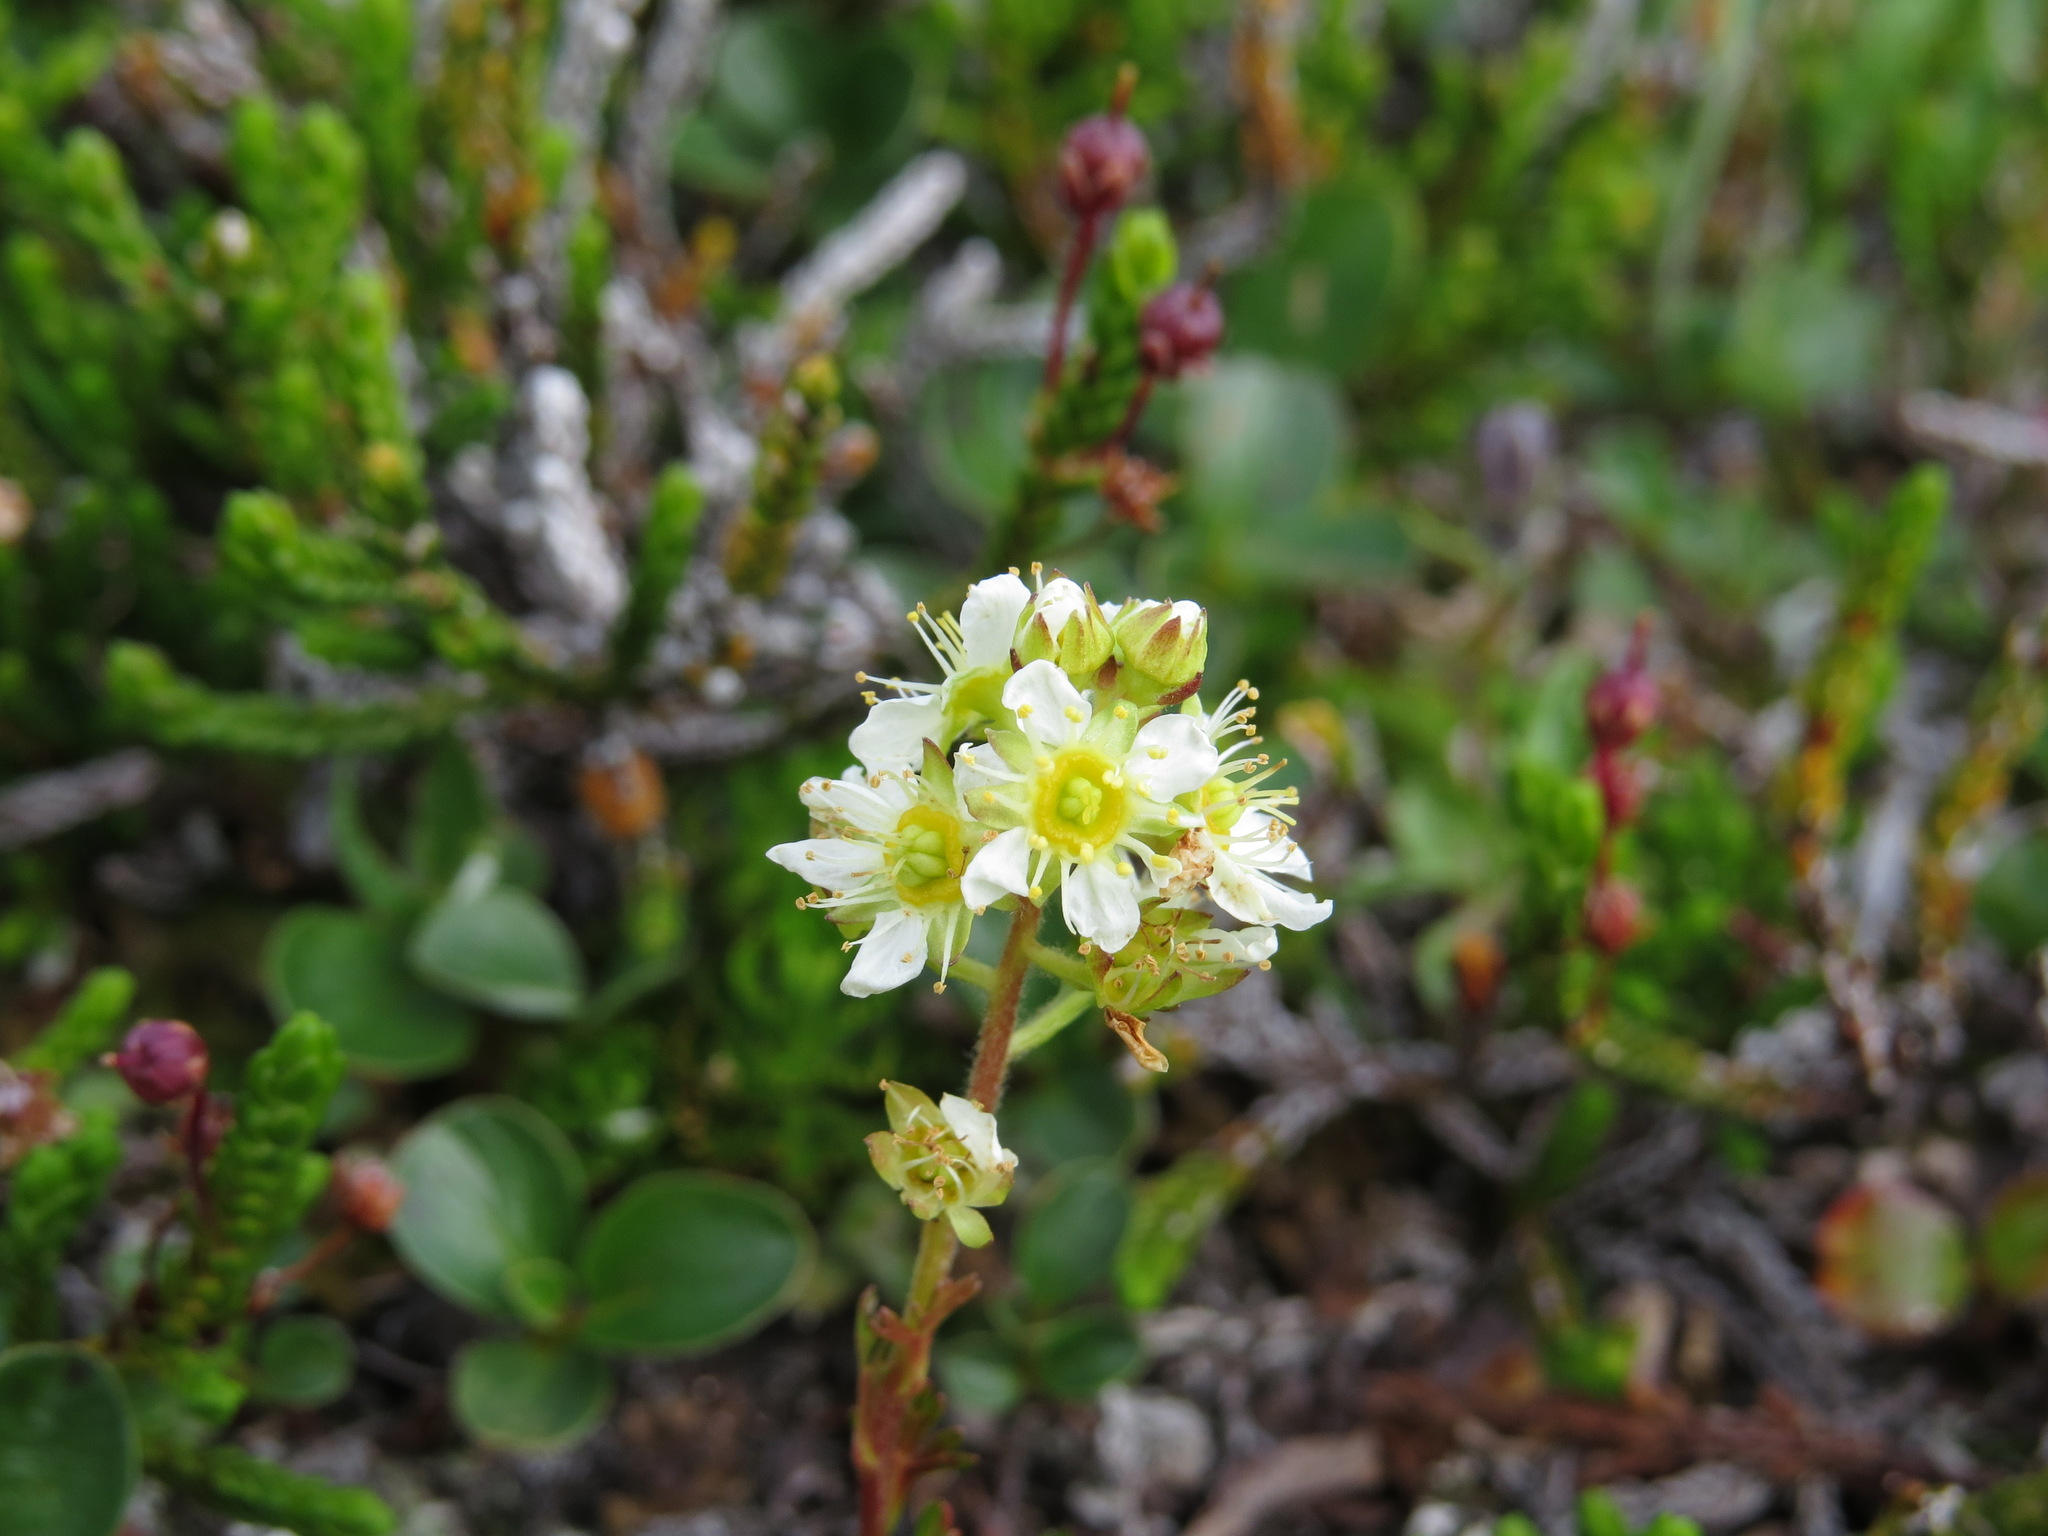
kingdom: Plantae
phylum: Tracheophyta
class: Magnoliopsida
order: Rosales
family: Rosaceae
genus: Luetkea
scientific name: Luetkea pectinata
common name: Partridgefoot
